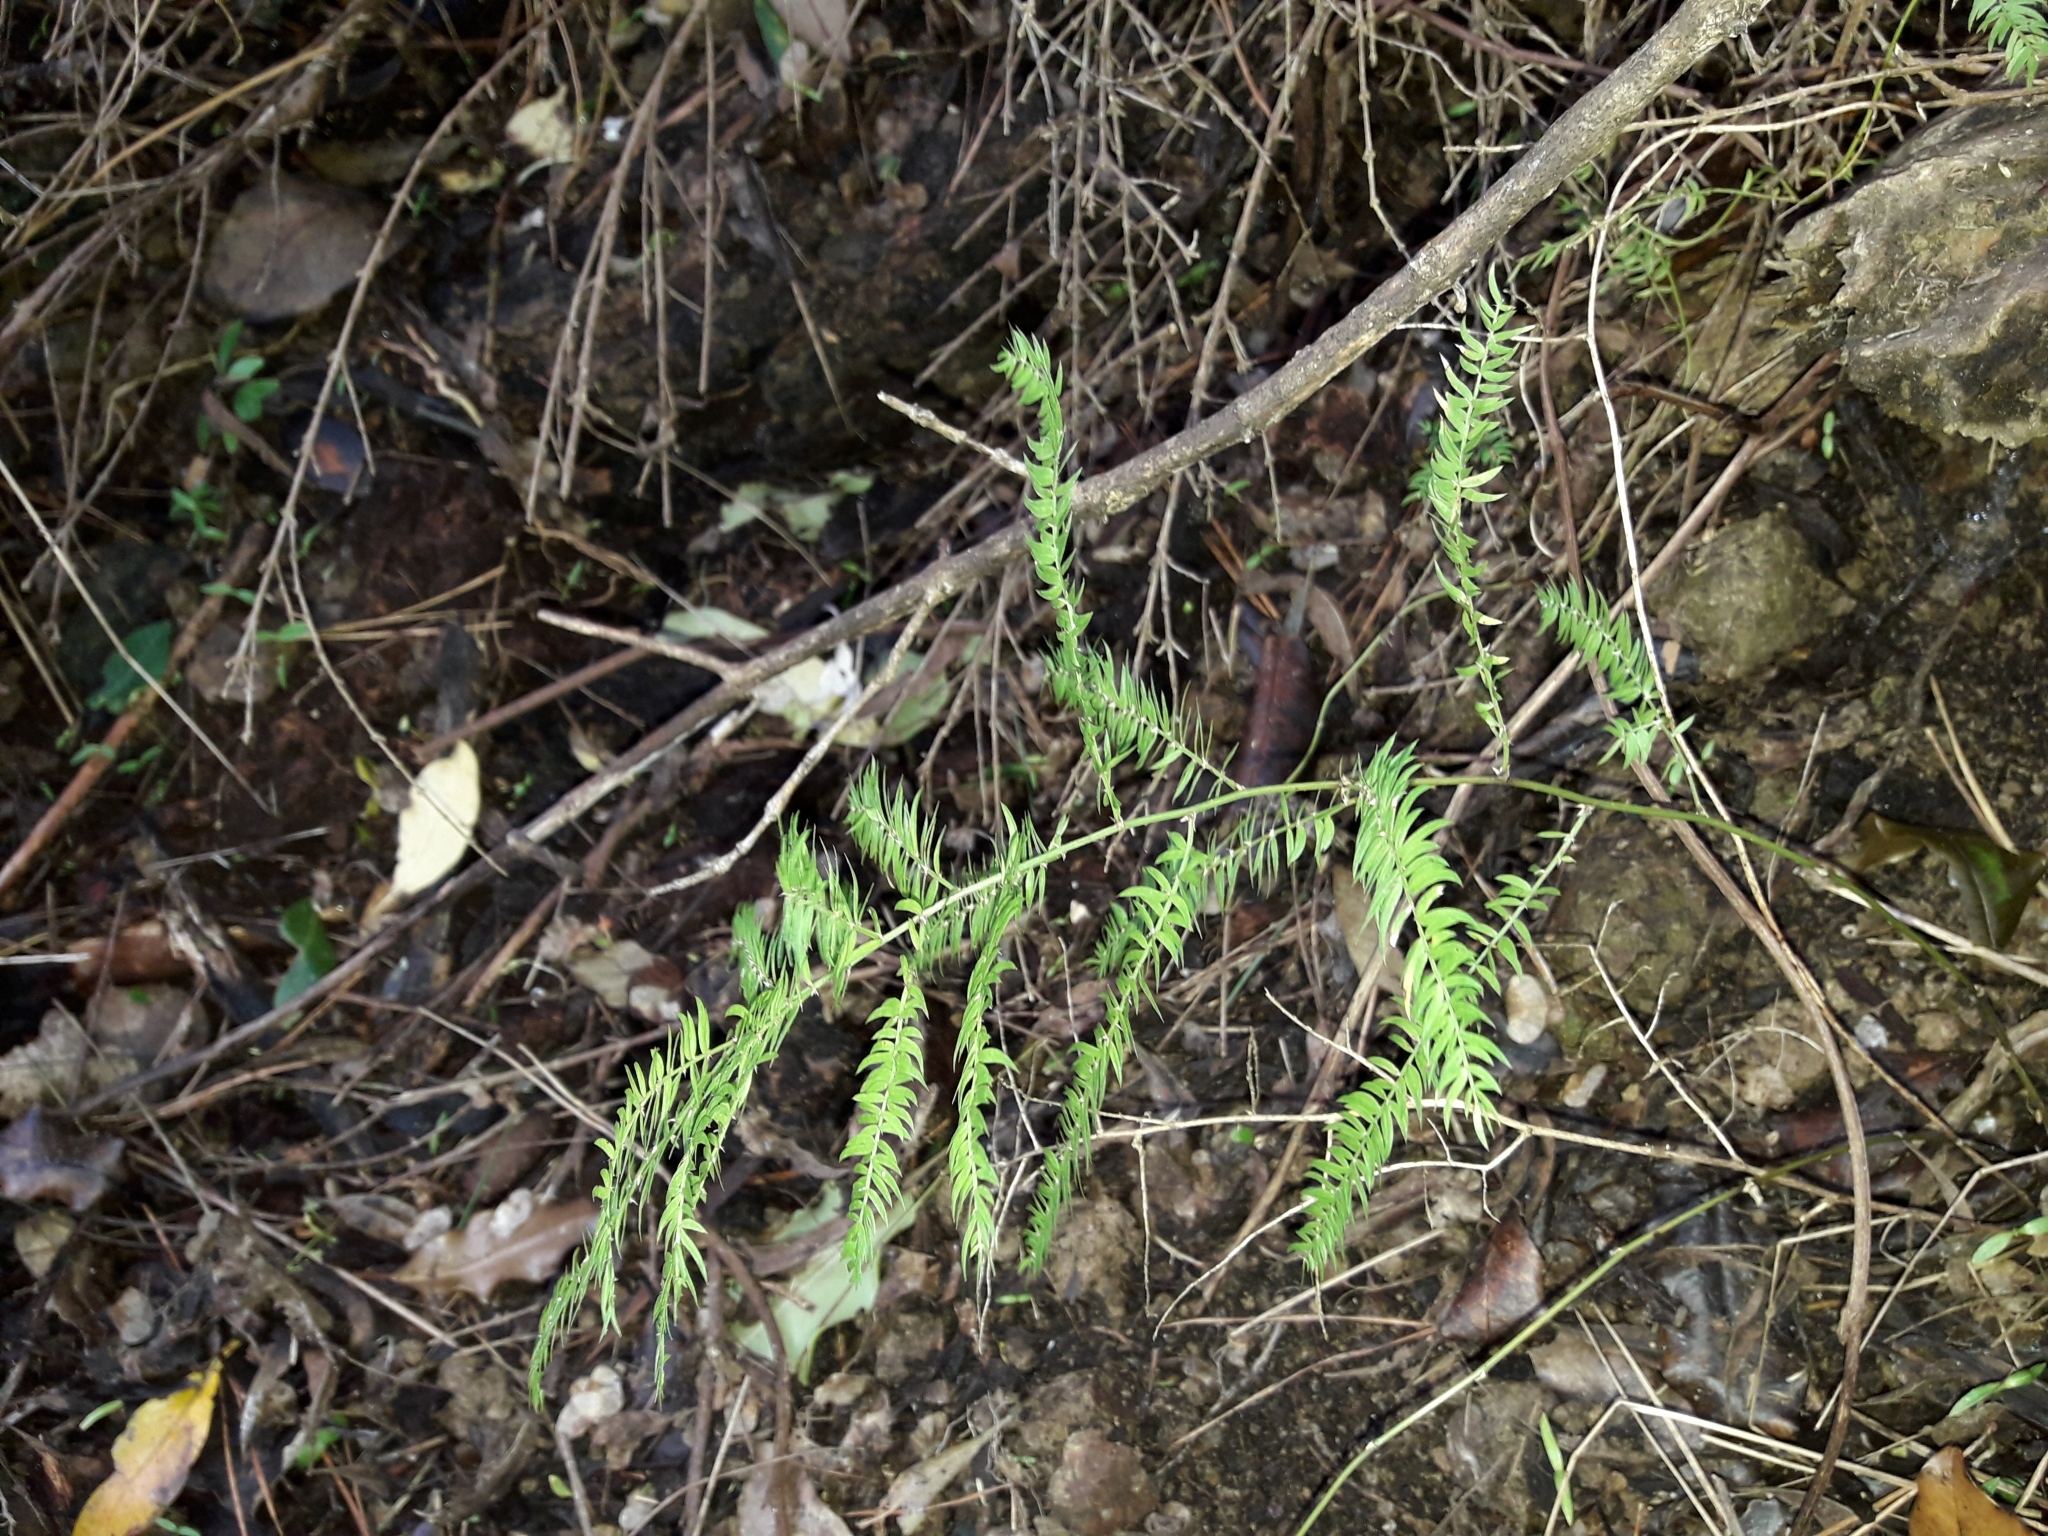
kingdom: Plantae
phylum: Tracheophyta
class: Liliopsida
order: Asparagales
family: Asparagaceae
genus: Asparagus
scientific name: Asparagus scandens
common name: Asparagus-fern
